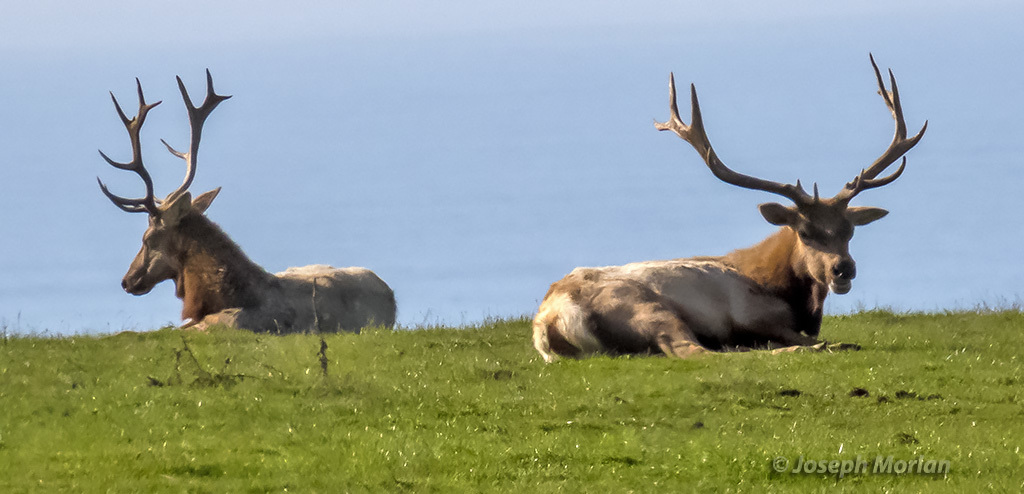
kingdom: Animalia
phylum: Chordata
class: Mammalia
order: Artiodactyla
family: Cervidae
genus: Cervus
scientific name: Cervus elaphus
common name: Red deer
